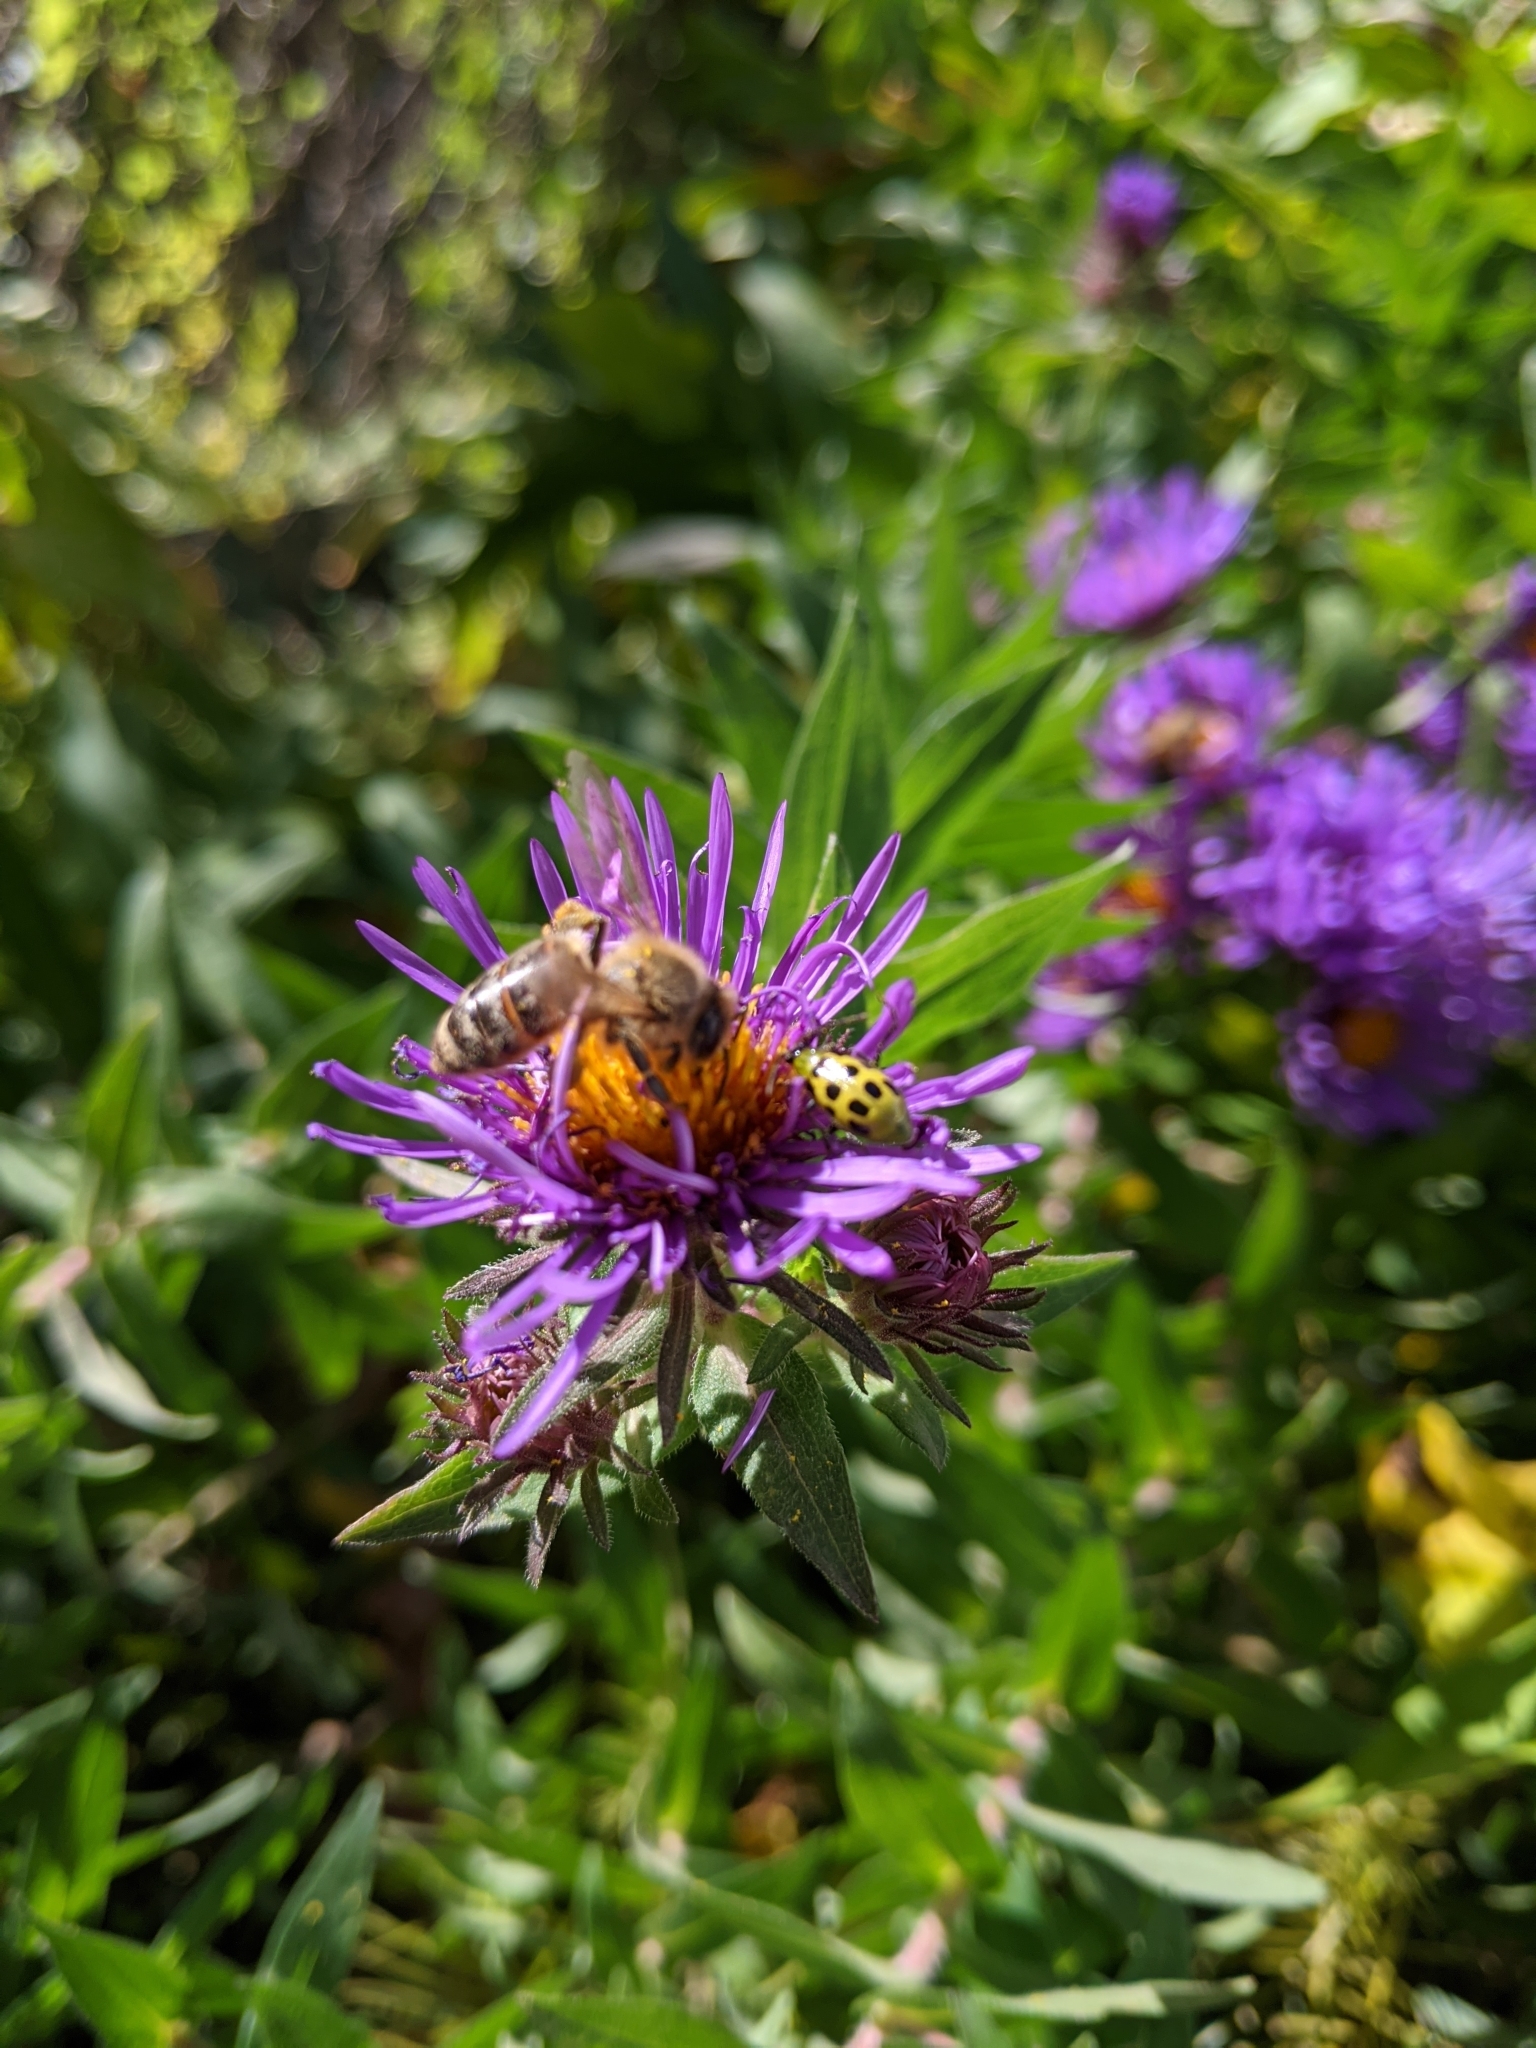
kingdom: Animalia
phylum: Arthropoda
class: Insecta
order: Hymenoptera
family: Apidae
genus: Apis
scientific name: Apis mellifera
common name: Honey bee
